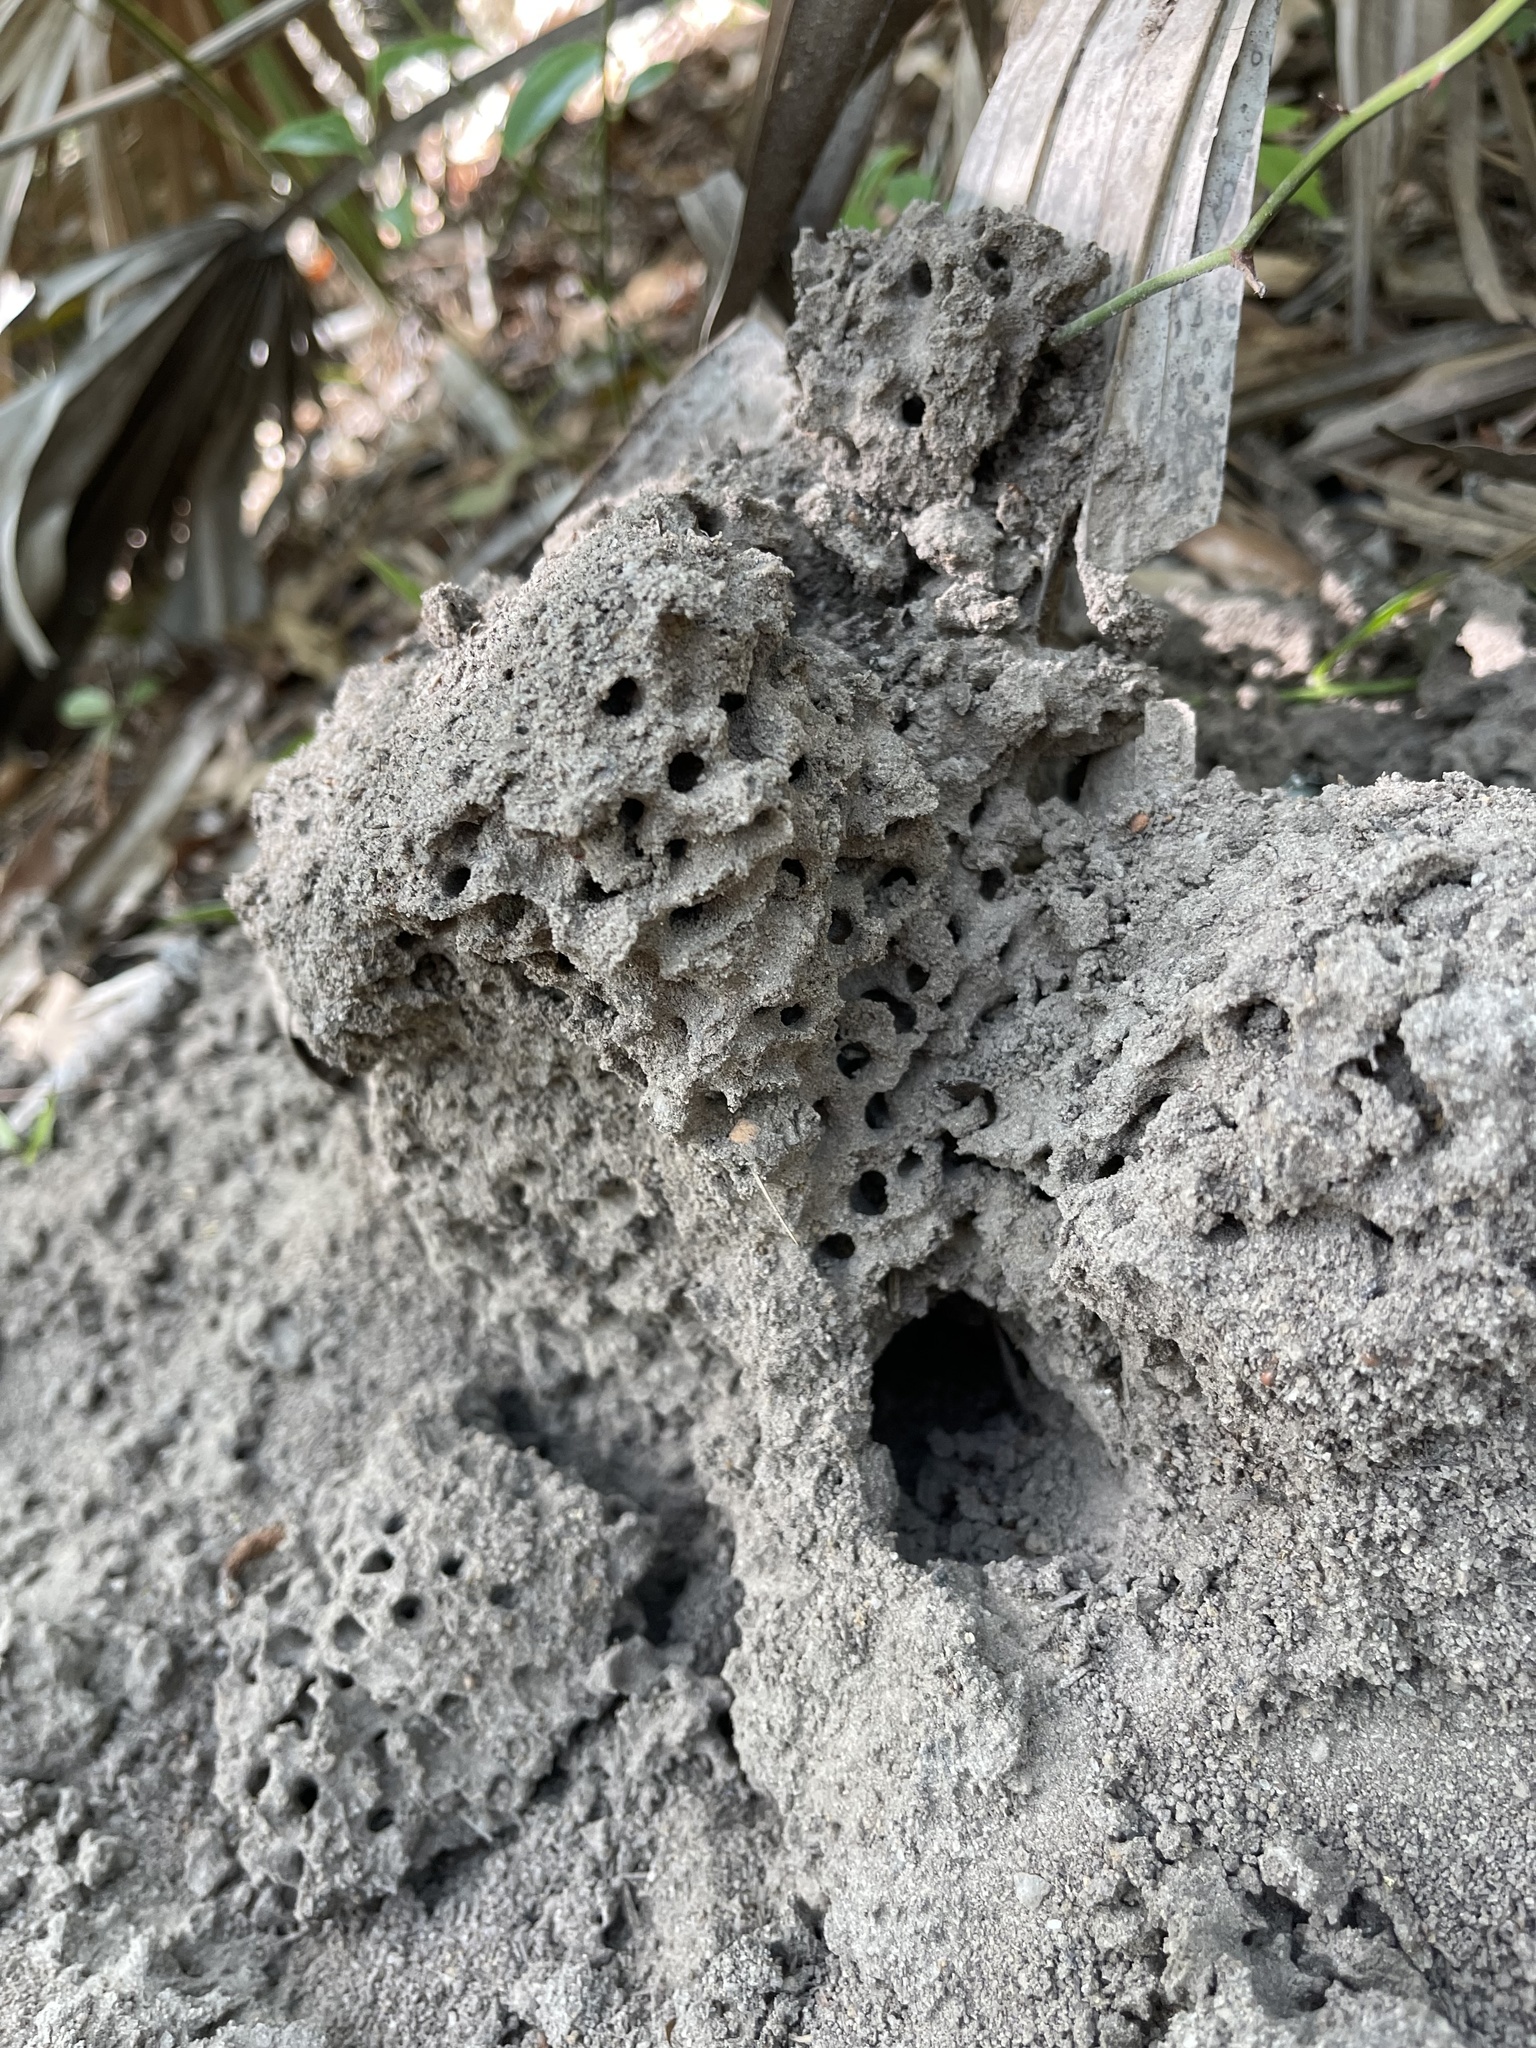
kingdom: Animalia
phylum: Arthropoda
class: Insecta
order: Hymenoptera
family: Formicidae
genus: Solenopsis
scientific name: Solenopsis invicta
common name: Red imported fire ant
